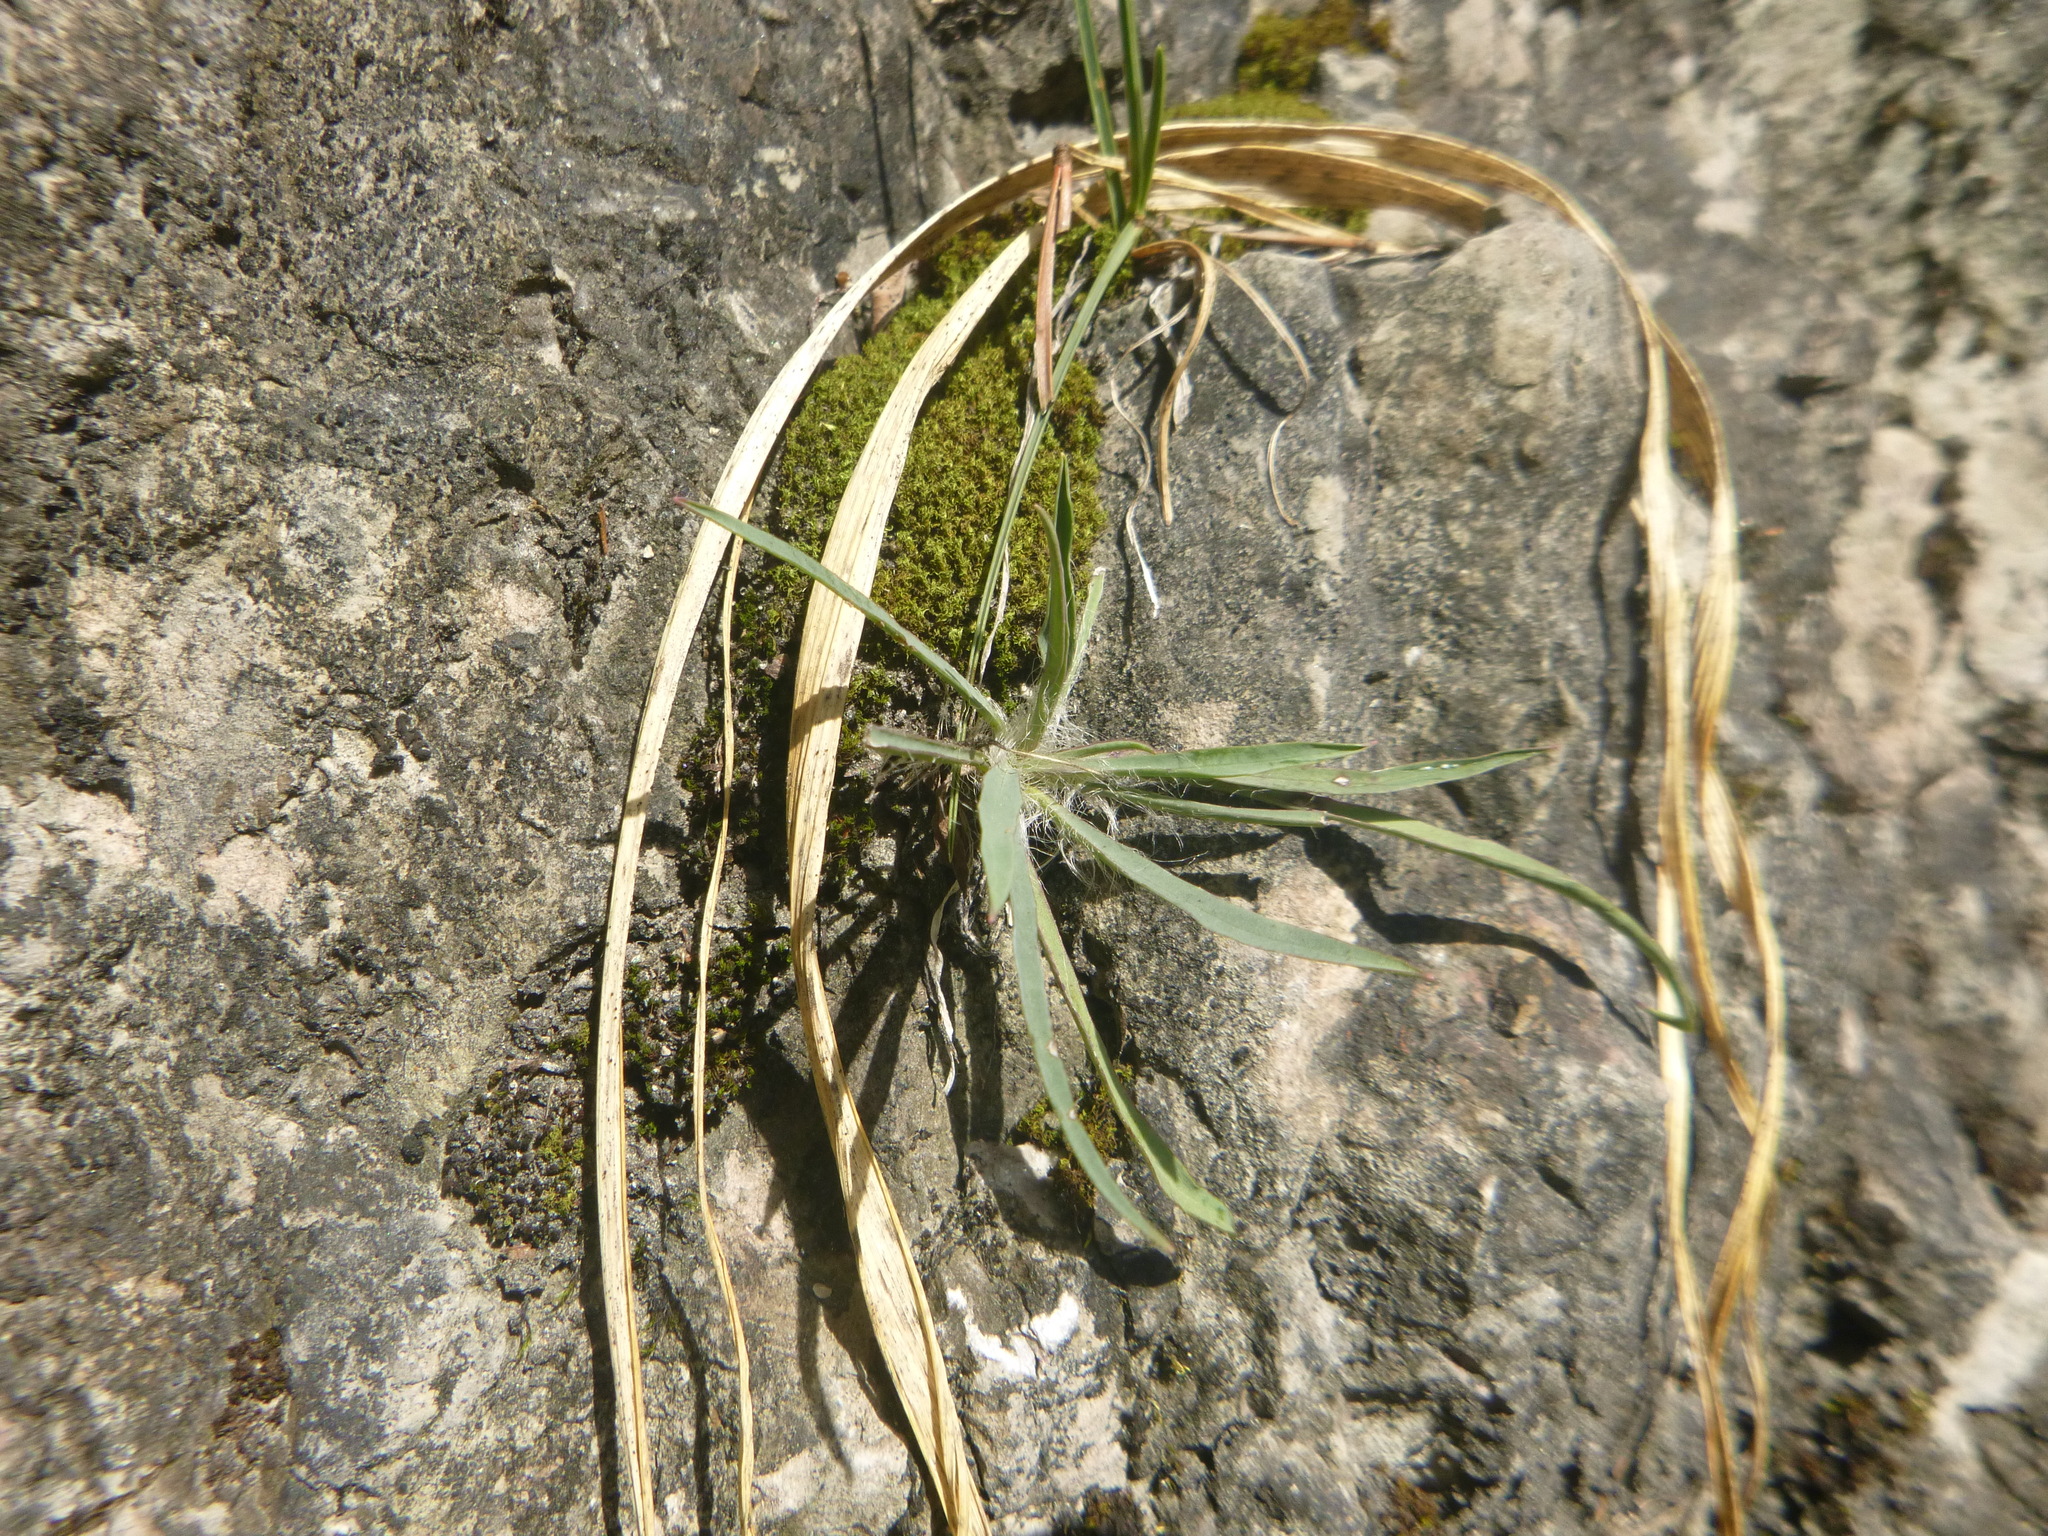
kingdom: Plantae
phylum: Tracheophyta
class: Magnoliopsida
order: Asterales
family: Asteraceae
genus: Hieracium
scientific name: Hieracium porrifolium
